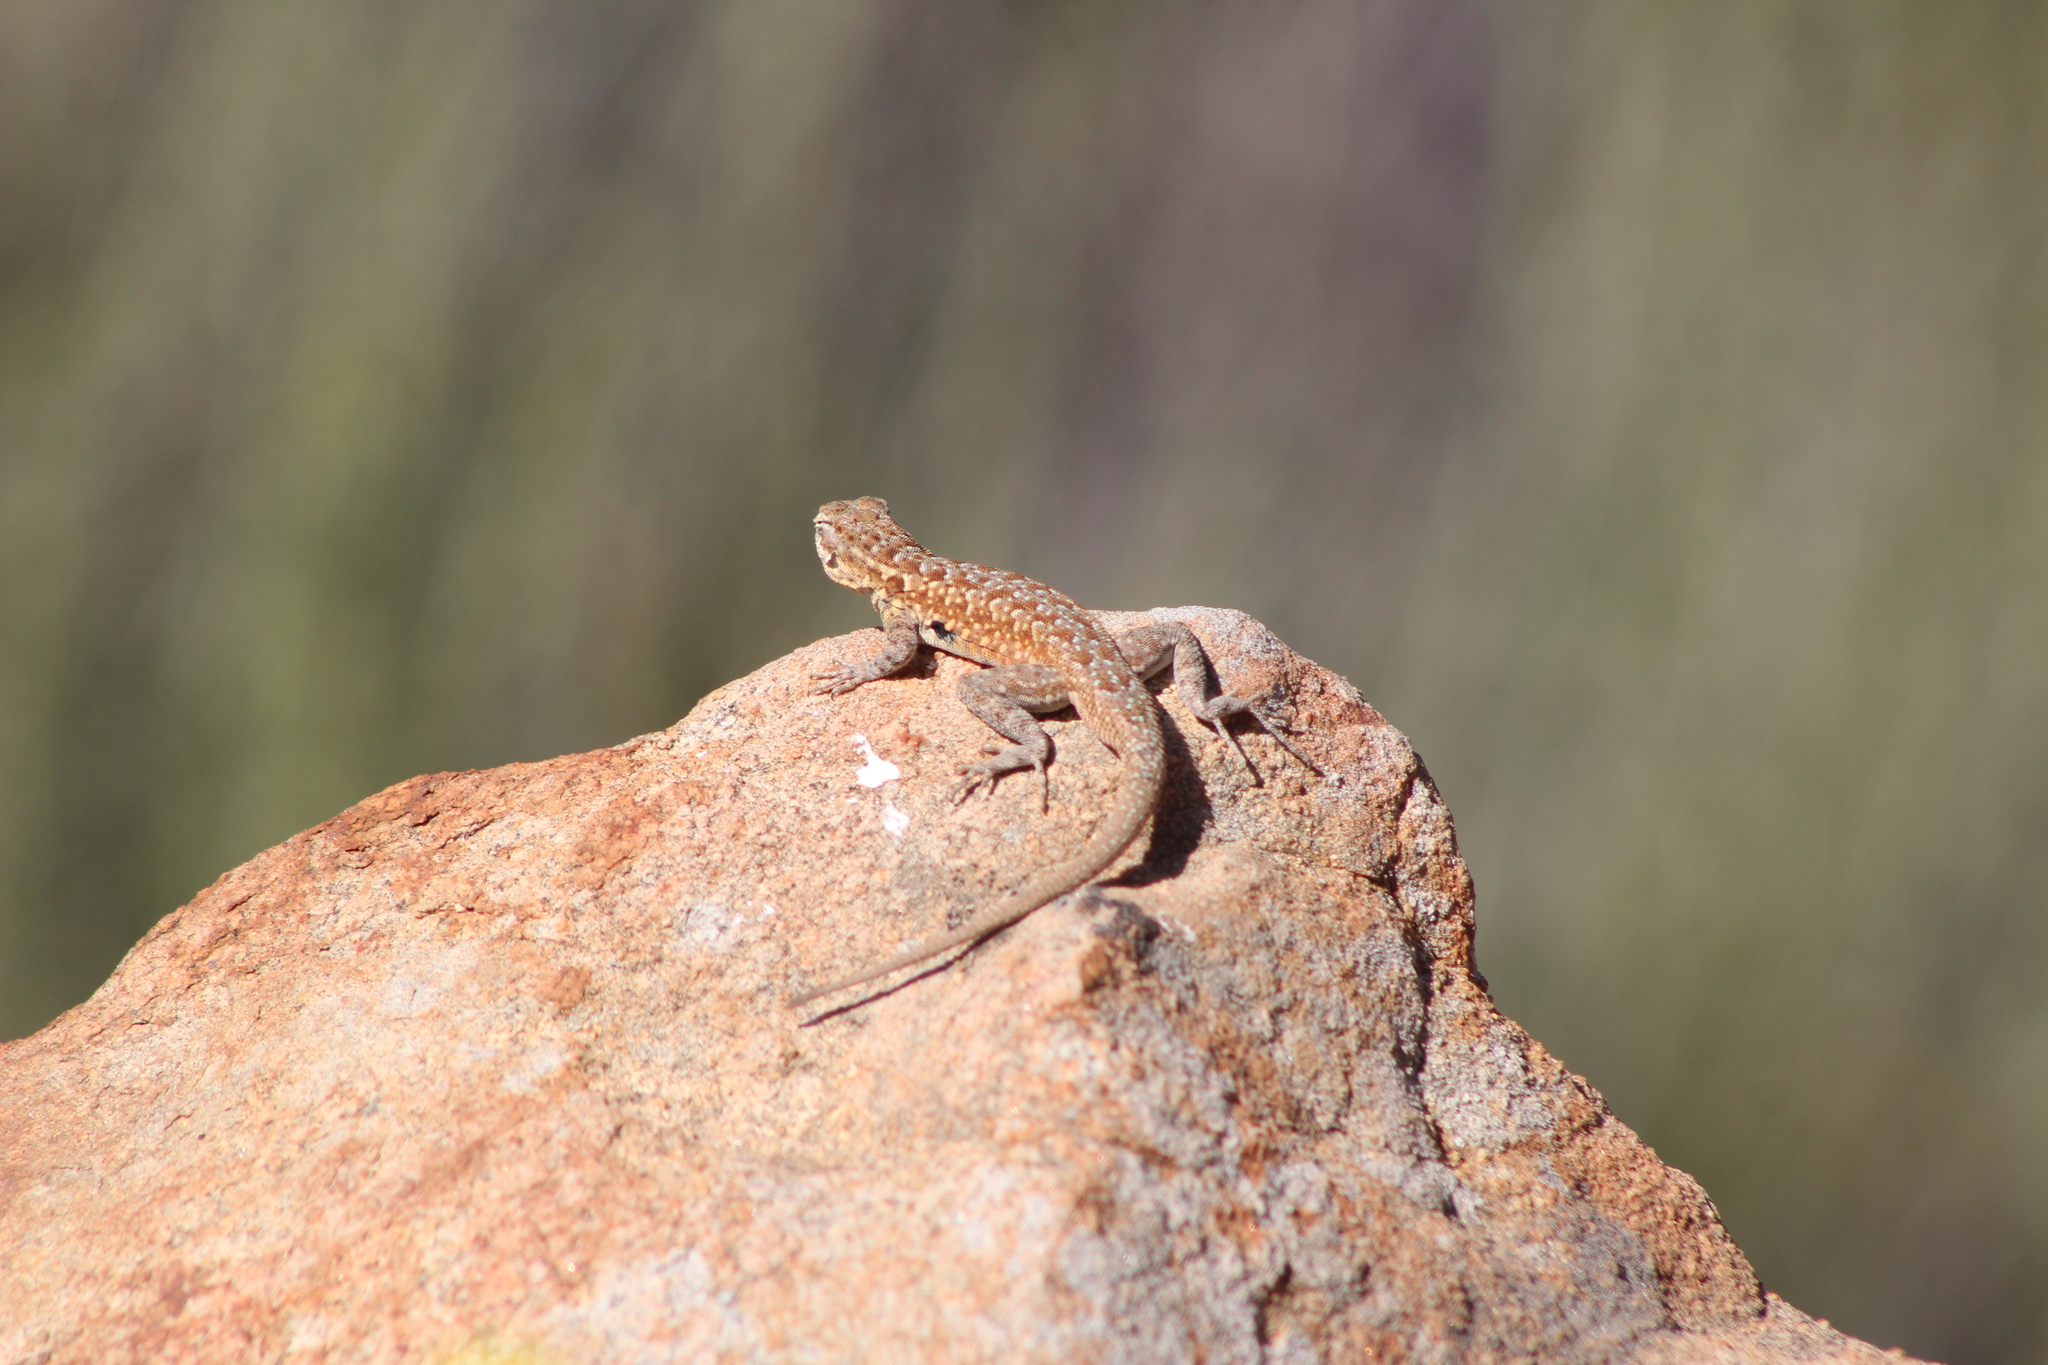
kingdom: Animalia
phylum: Chordata
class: Squamata
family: Phrynosomatidae
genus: Uta
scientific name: Uta stansburiana
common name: Side-blotched lizard
